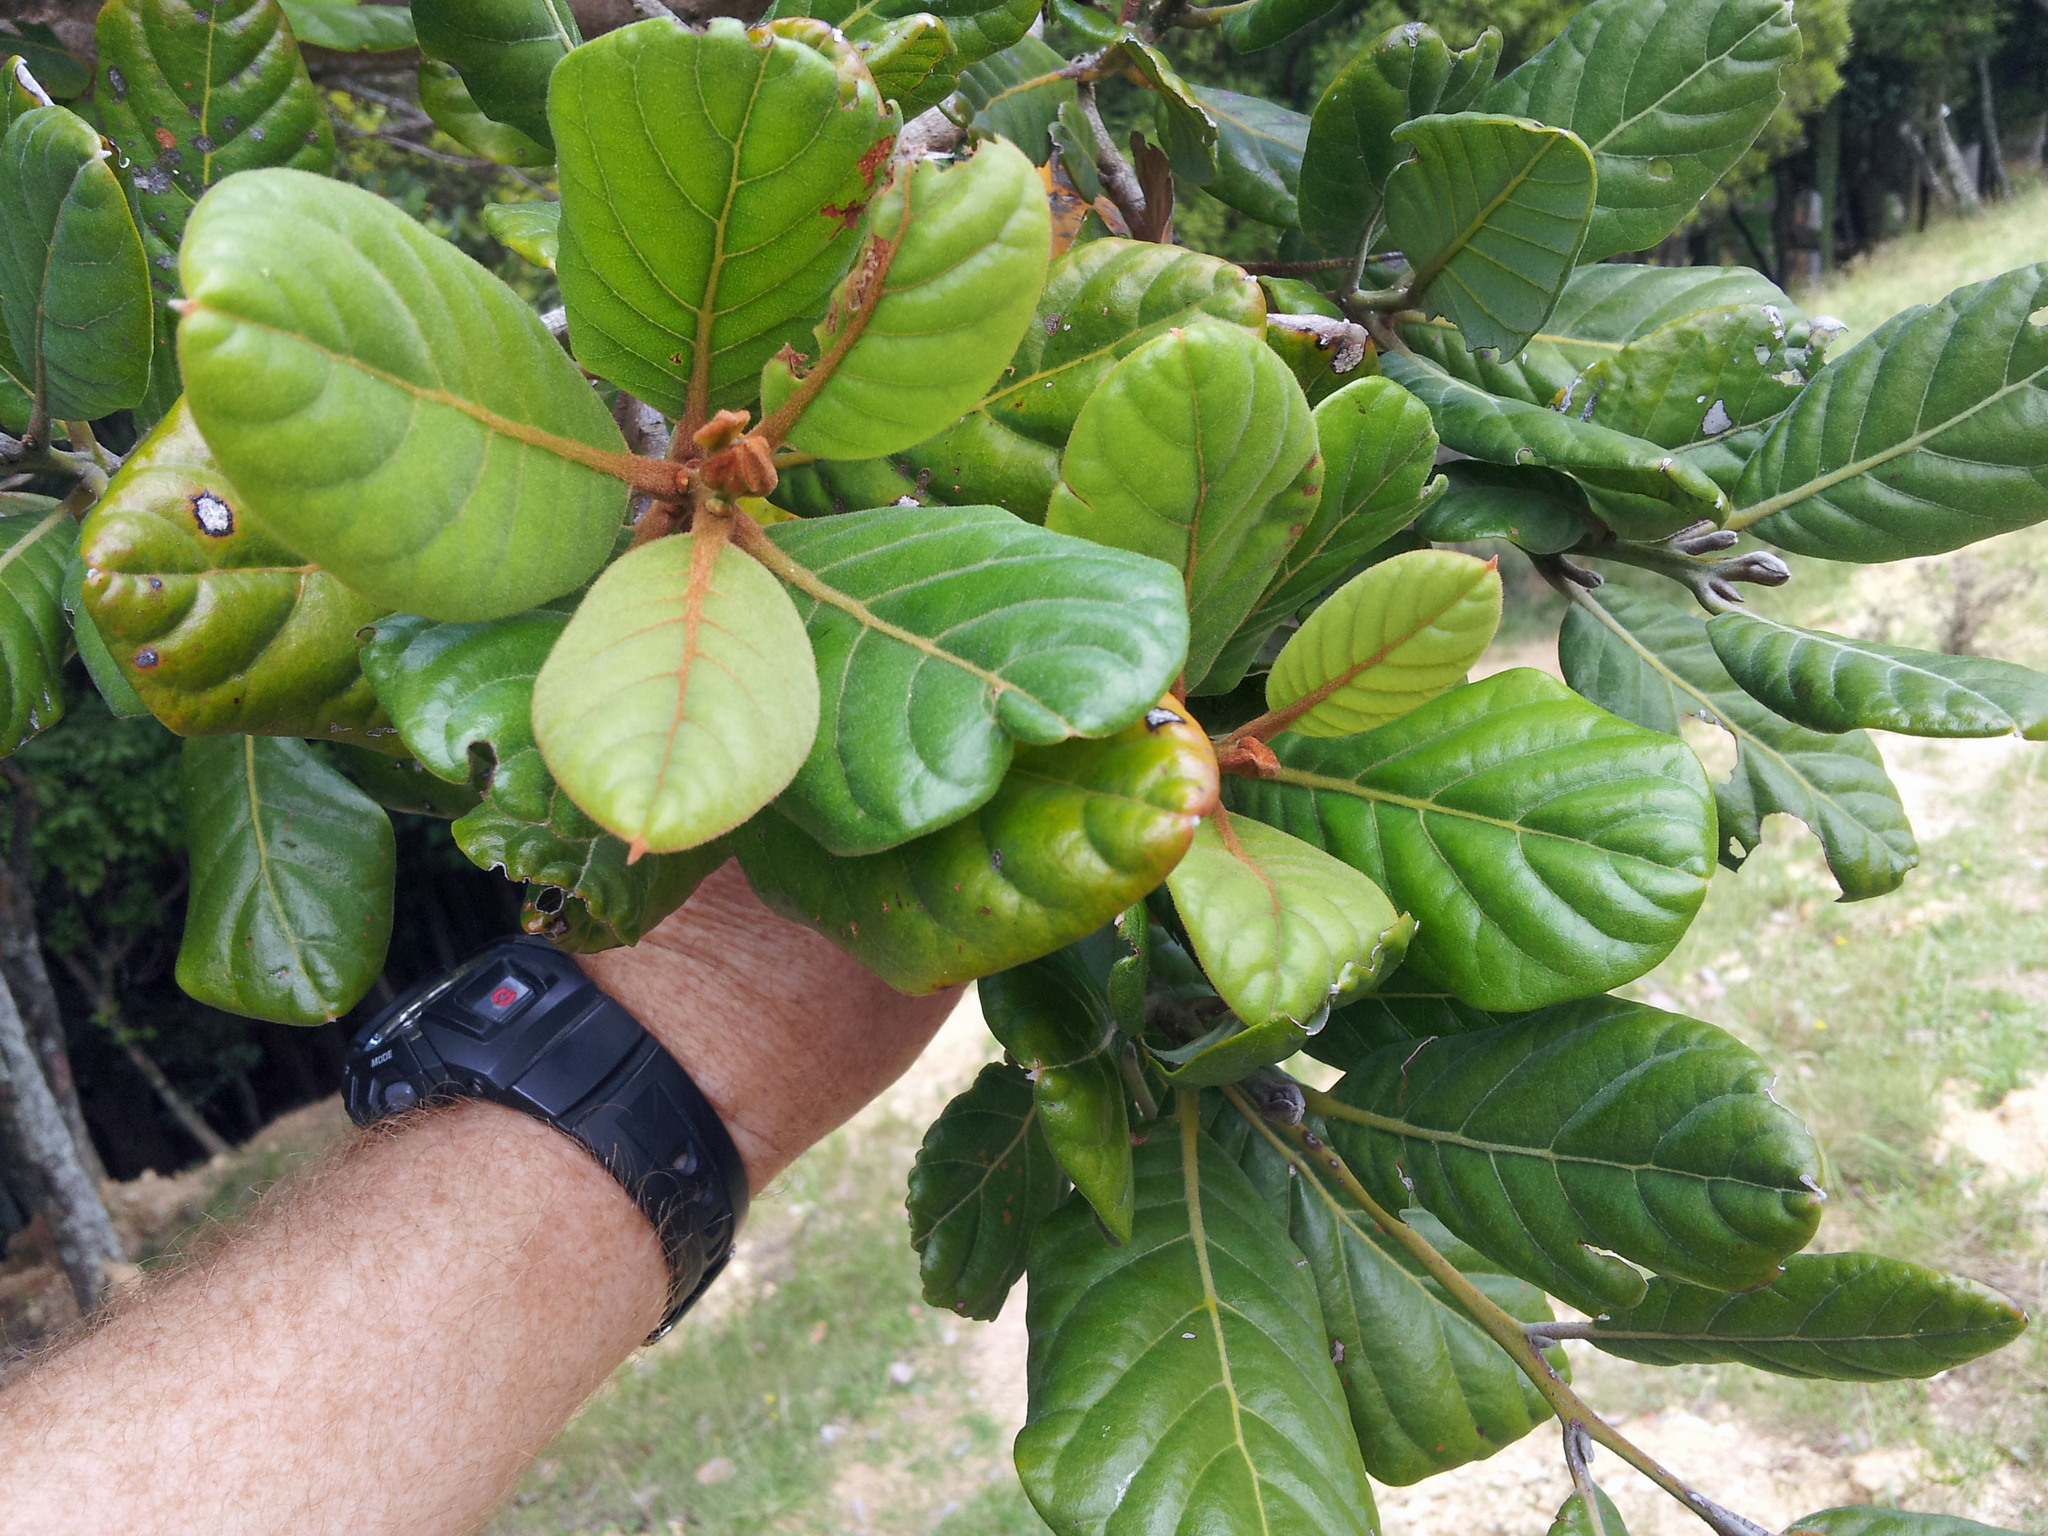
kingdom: Plantae
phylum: Tracheophyta
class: Magnoliopsida
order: Laurales
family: Lauraceae
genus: Beilschmiedia
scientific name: Beilschmiedia tarairi
